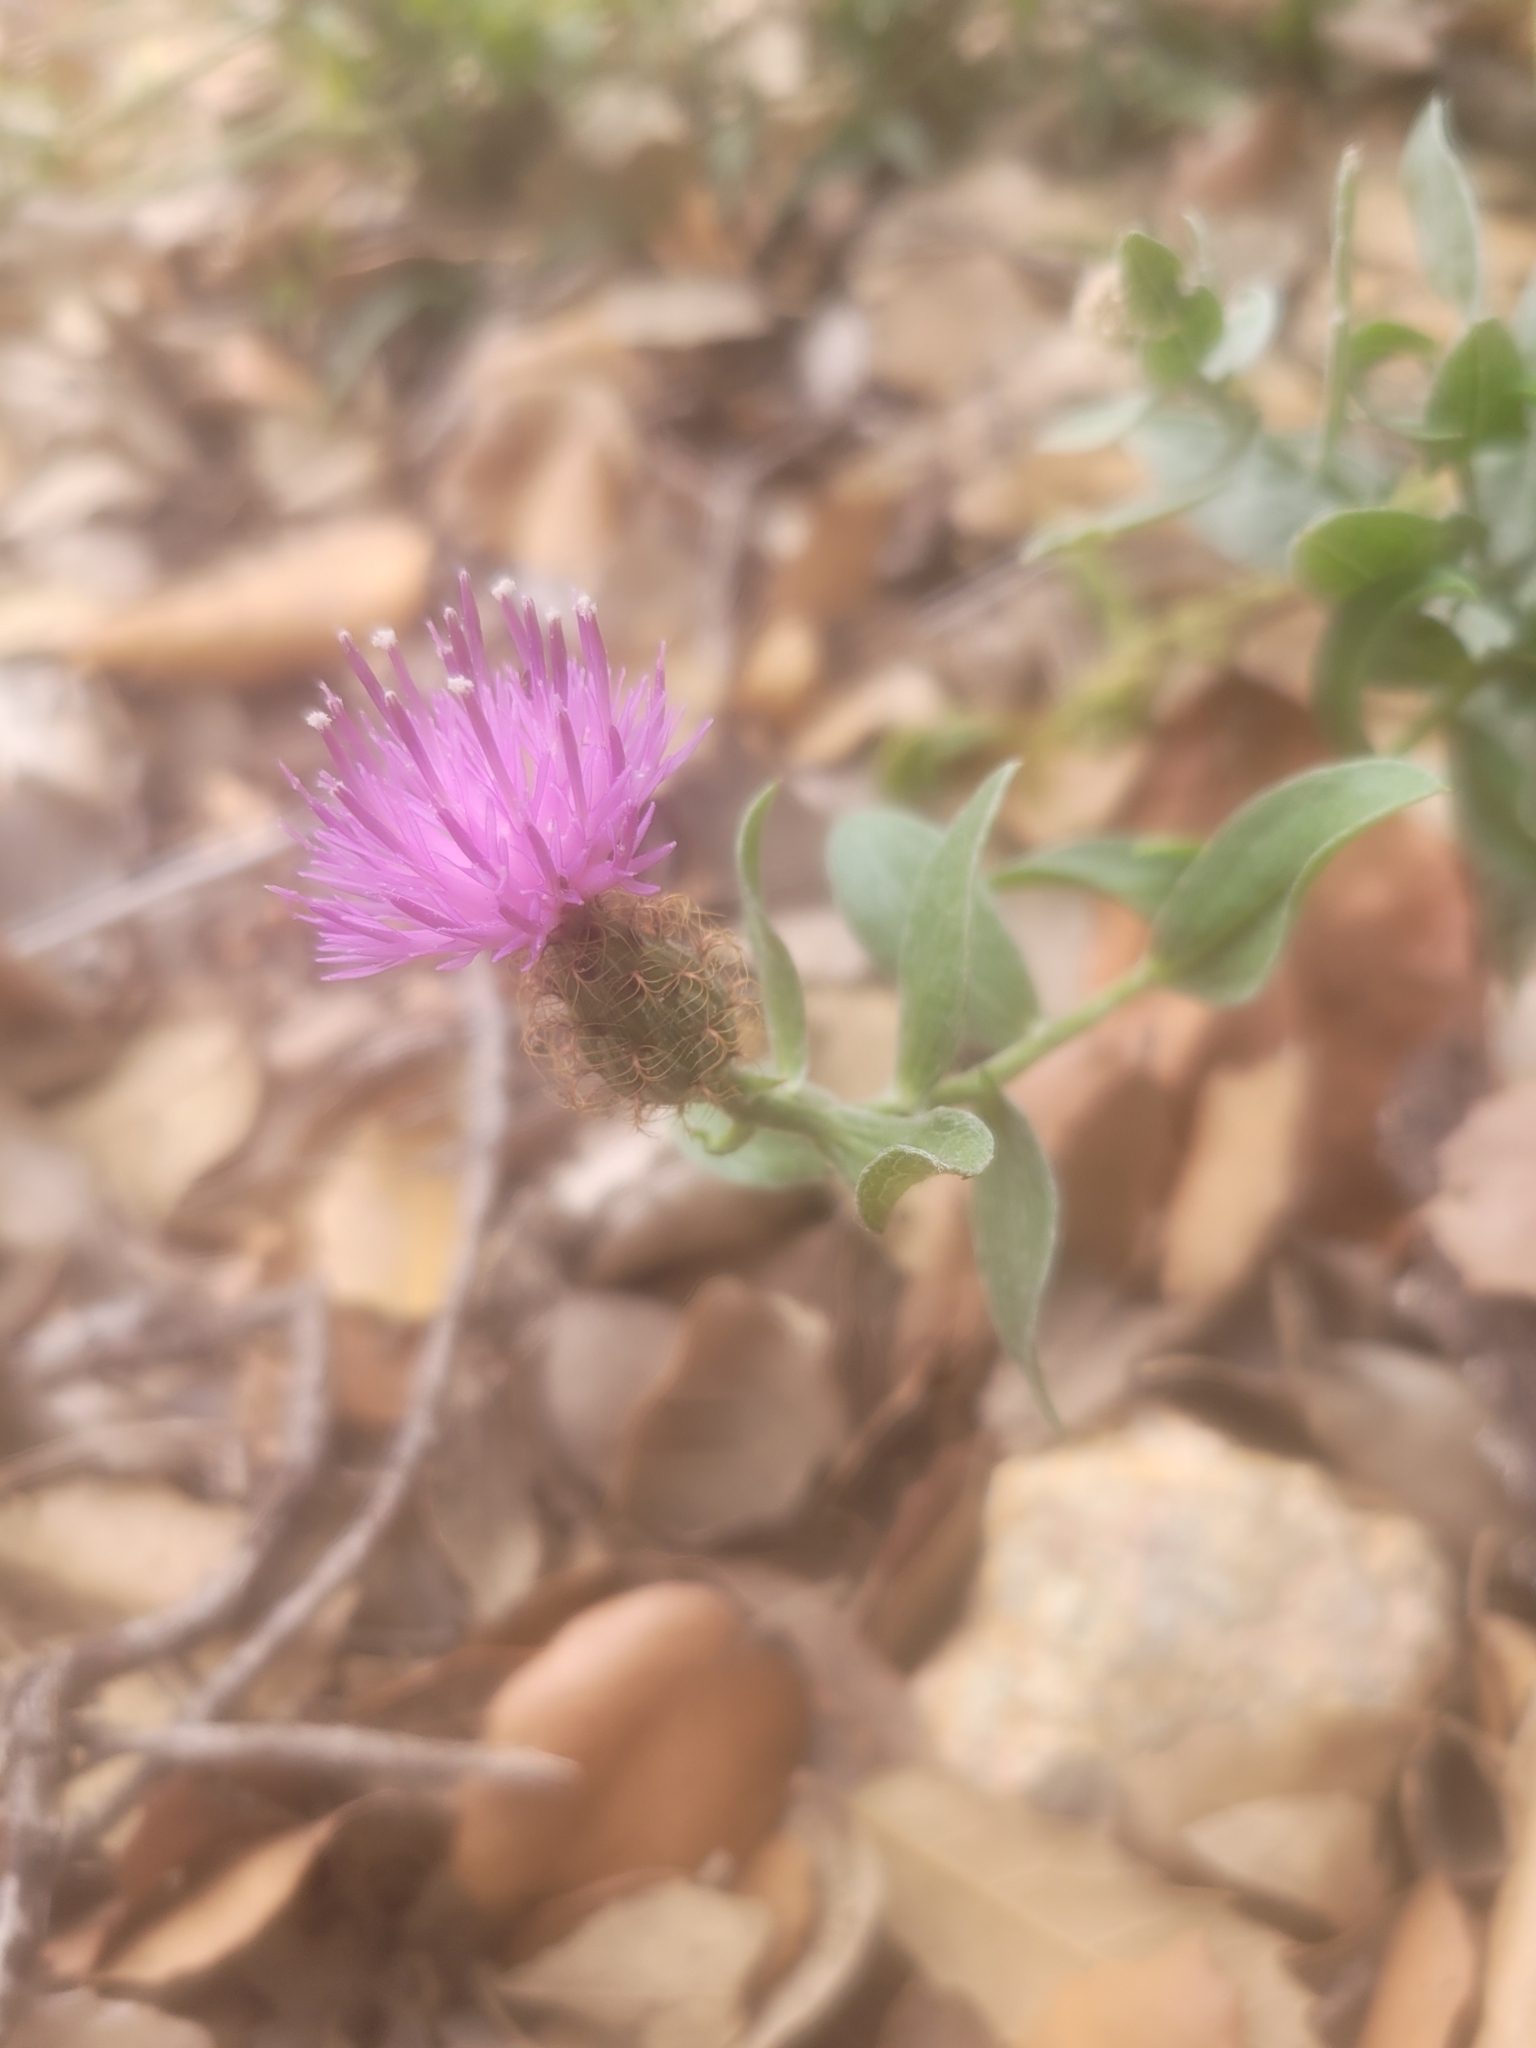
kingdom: Plantae
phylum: Tracheophyta
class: Magnoliopsida
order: Asterales
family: Asteraceae
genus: Centaurea
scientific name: Centaurea pectinata
